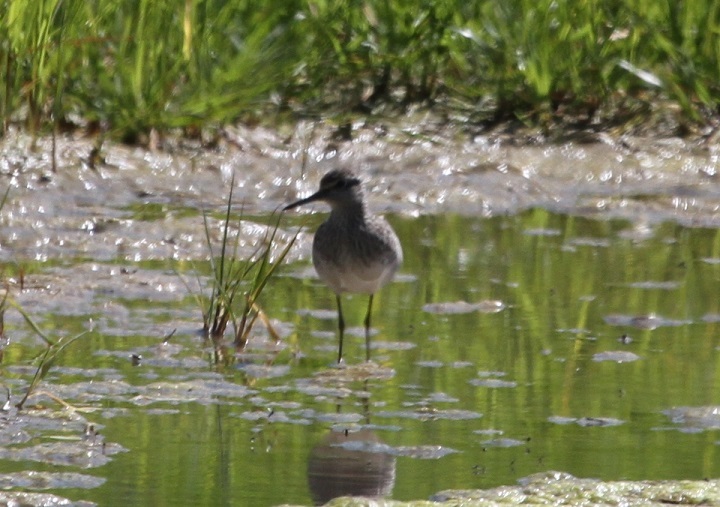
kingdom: Animalia
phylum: Chordata
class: Aves
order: Charadriiformes
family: Scolopacidae
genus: Tringa
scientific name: Tringa glareola
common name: Wood sandpiper
